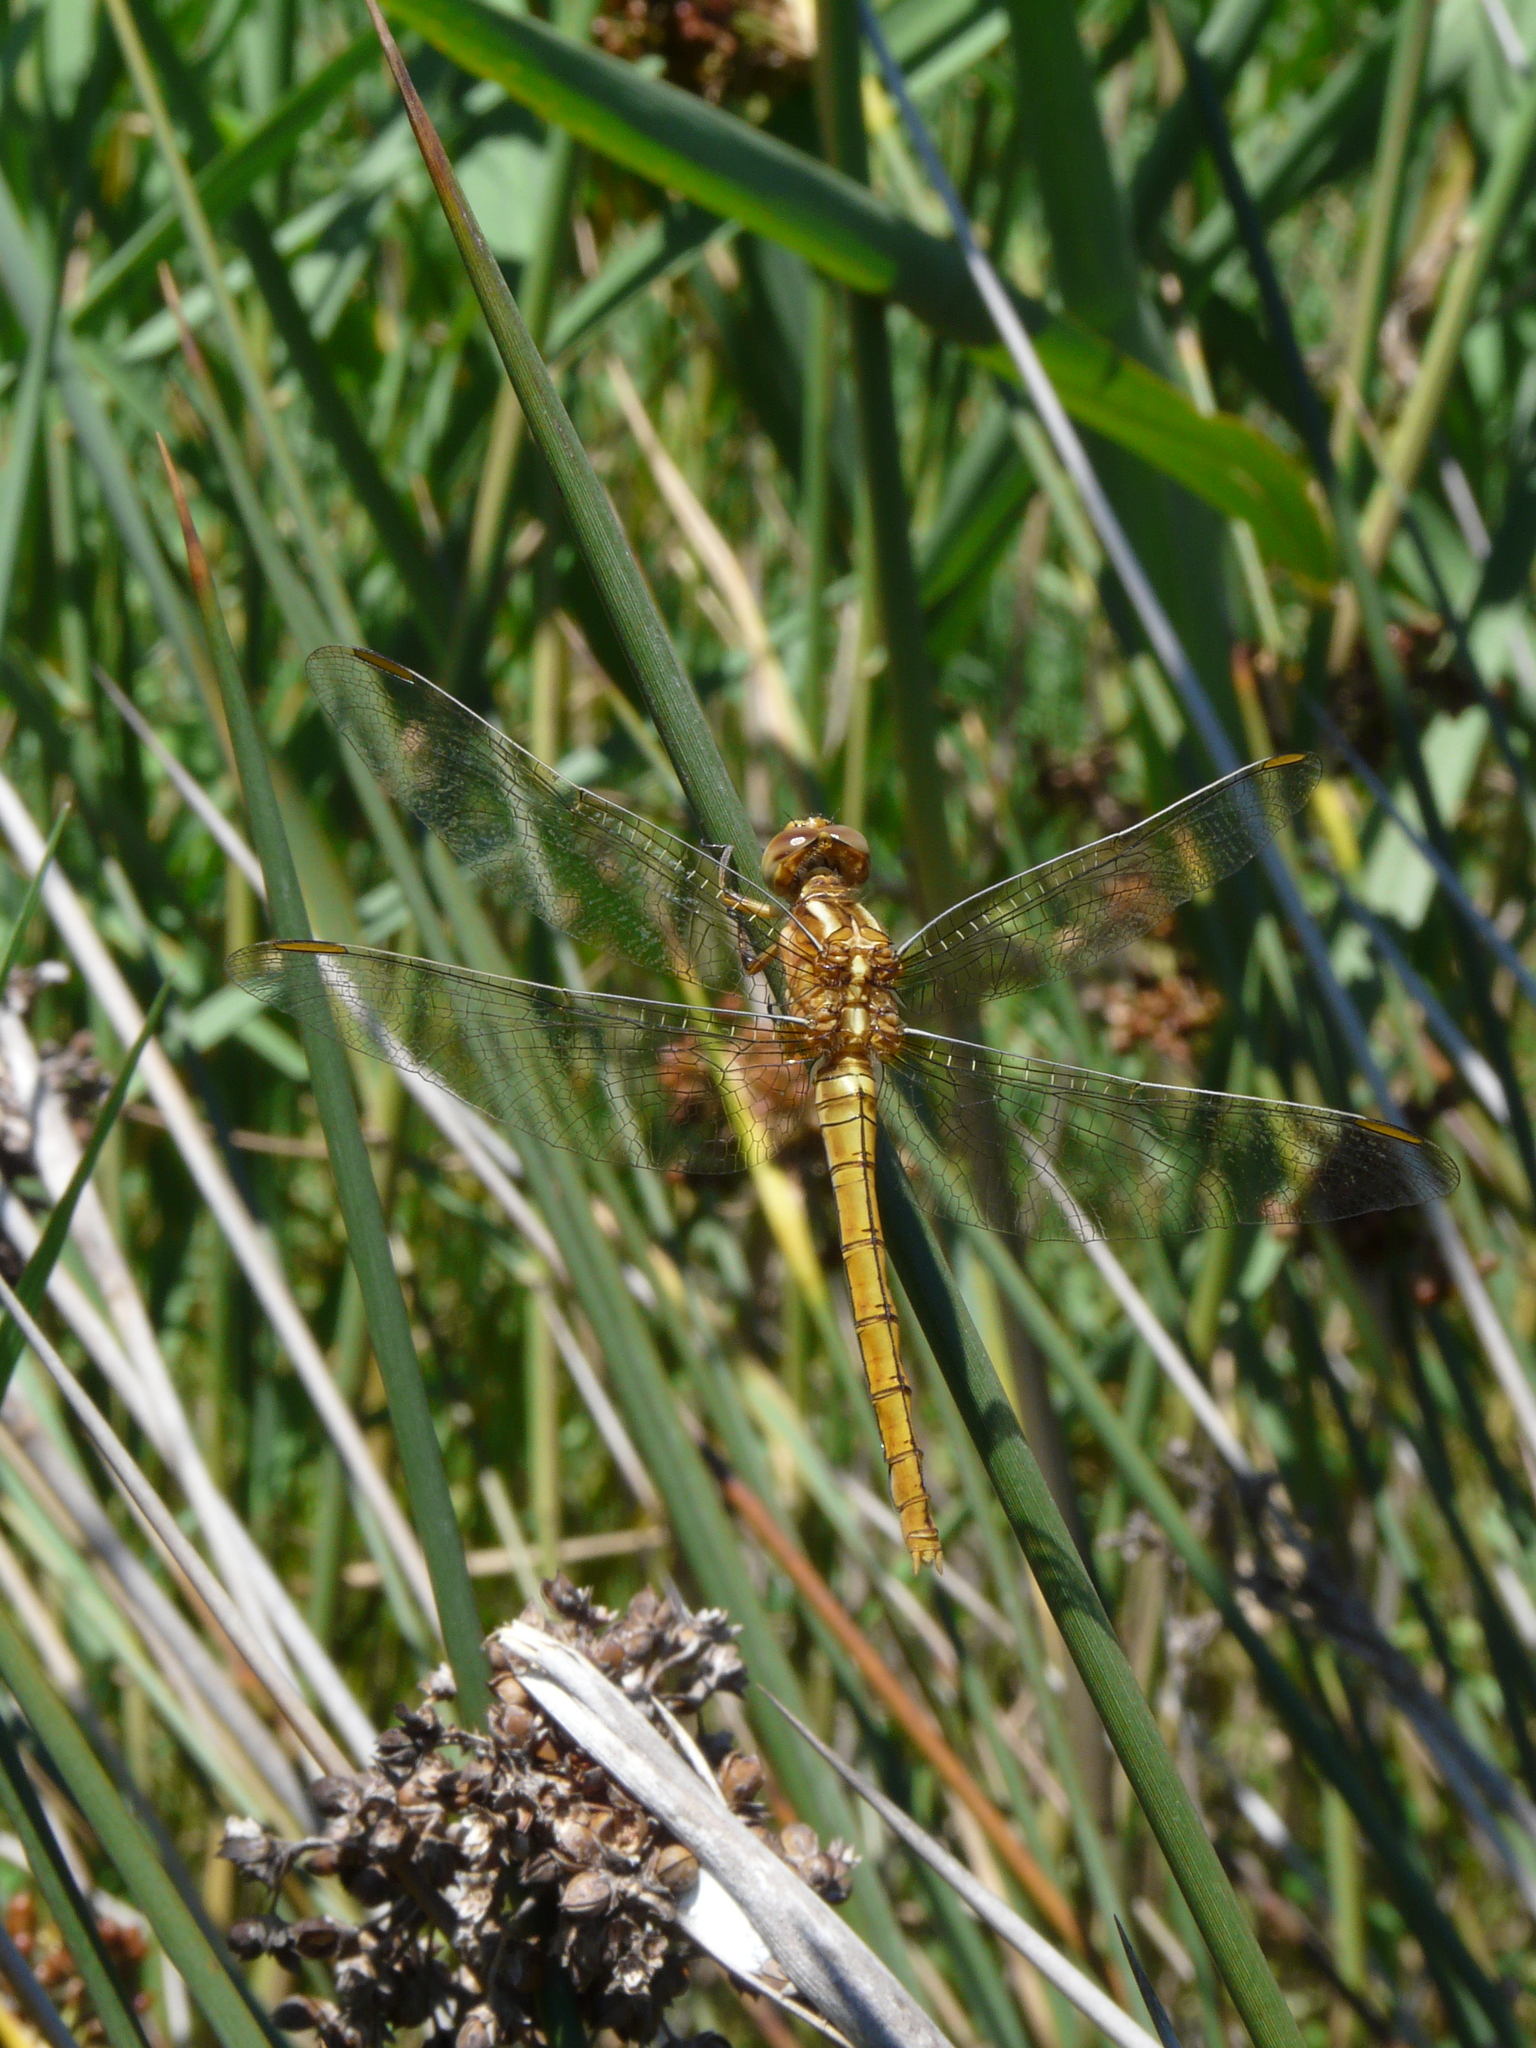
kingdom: Animalia
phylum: Arthropoda
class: Insecta
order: Odonata
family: Libellulidae
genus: Orthetrum
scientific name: Orthetrum coerulescens
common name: Keeled skimmer
